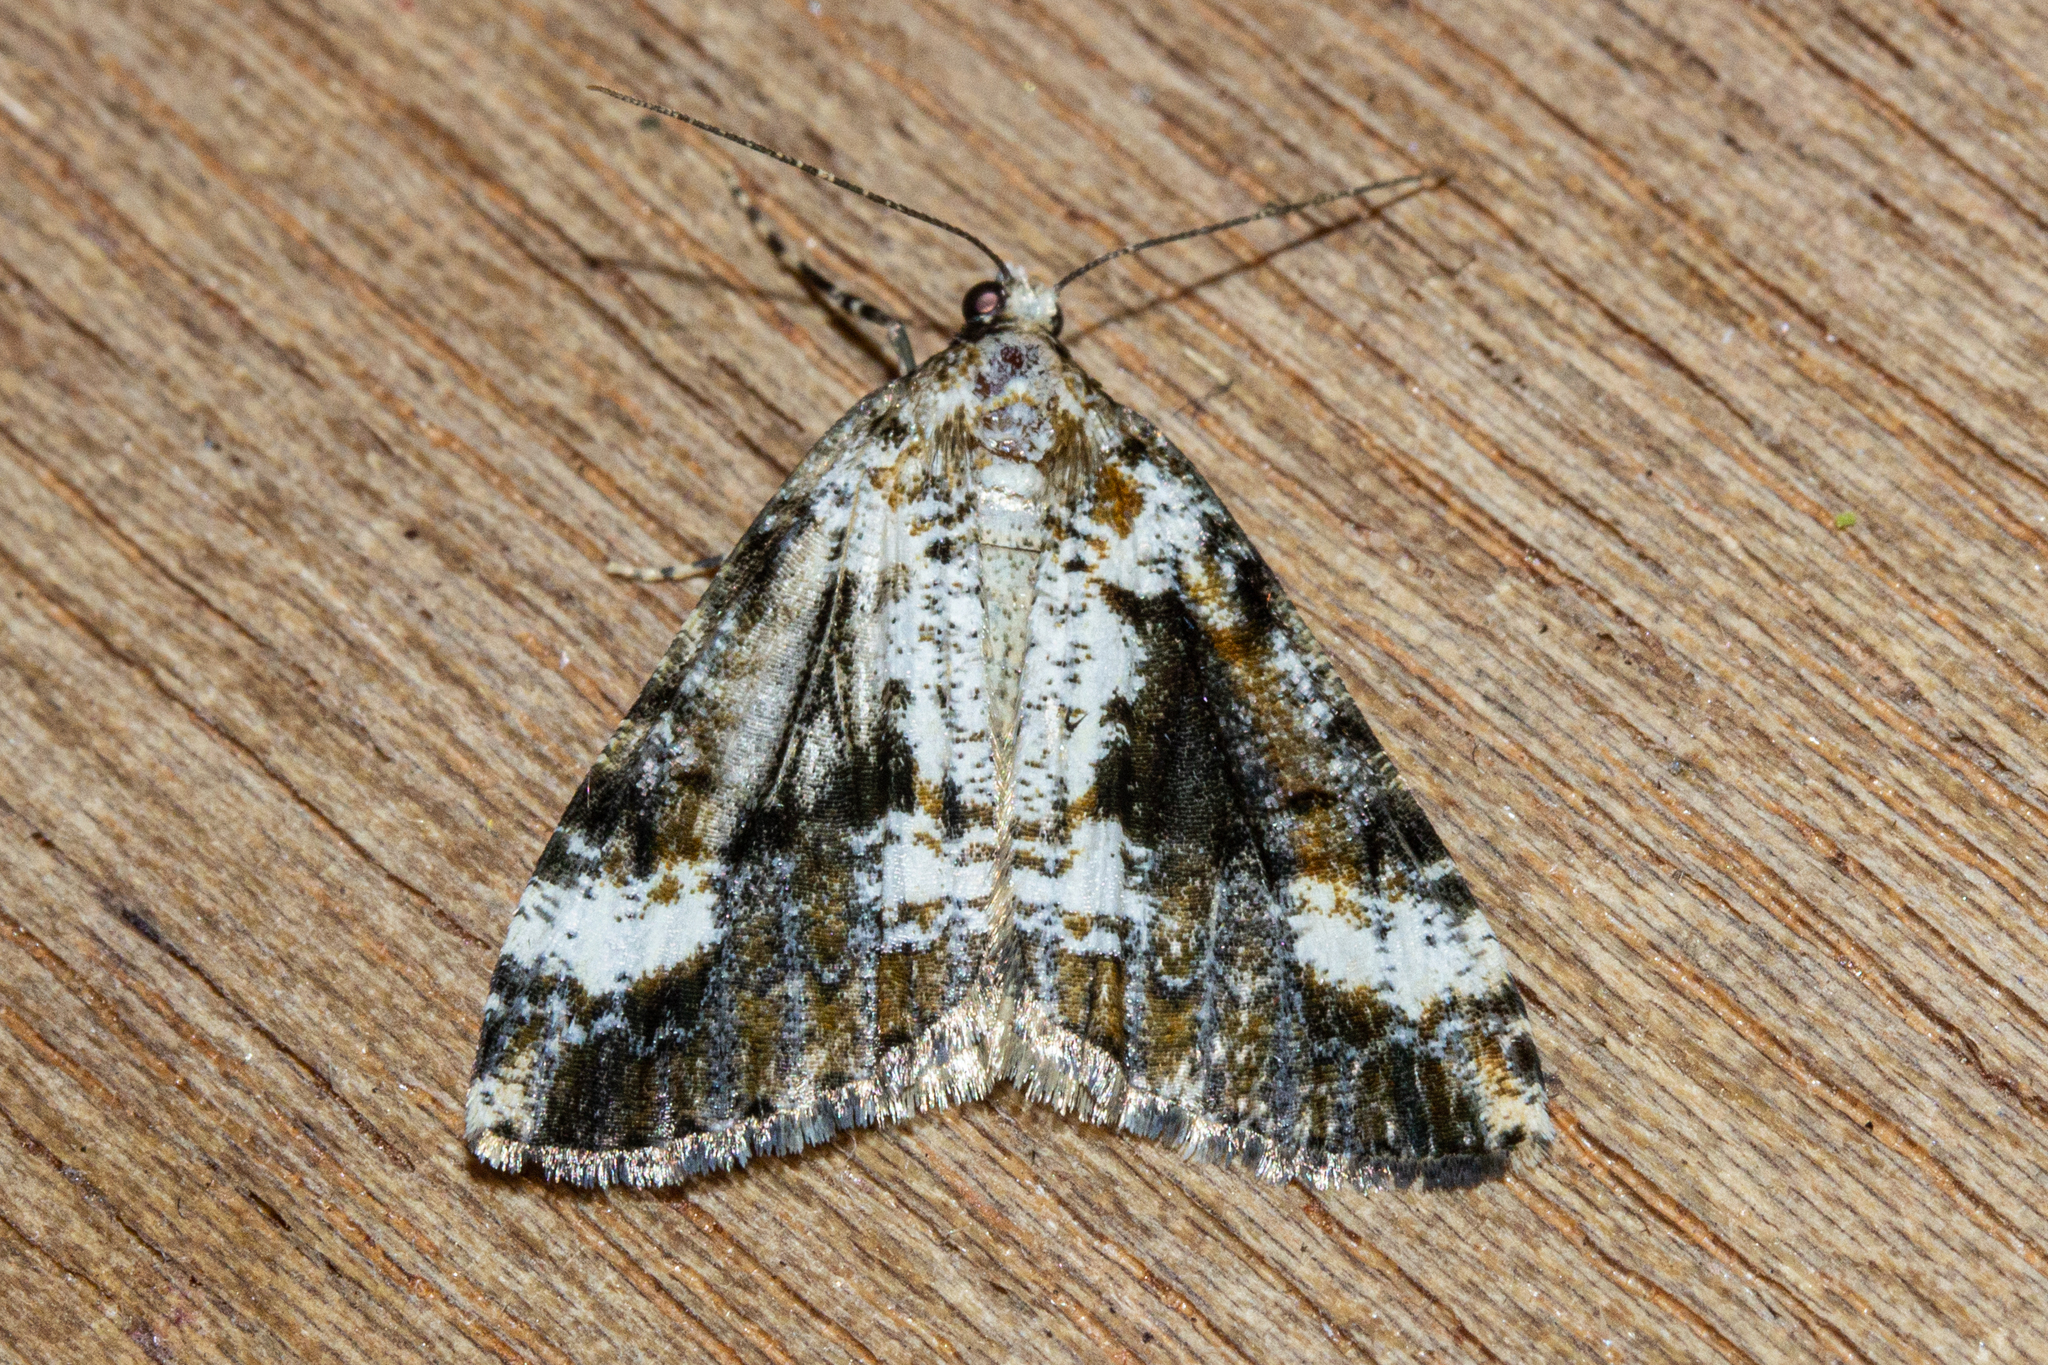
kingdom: Animalia
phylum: Arthropoda
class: Insecta
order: Lepidoptera
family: Geometridae
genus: Pseudocoremia
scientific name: Pseudocoremia leucelaea
